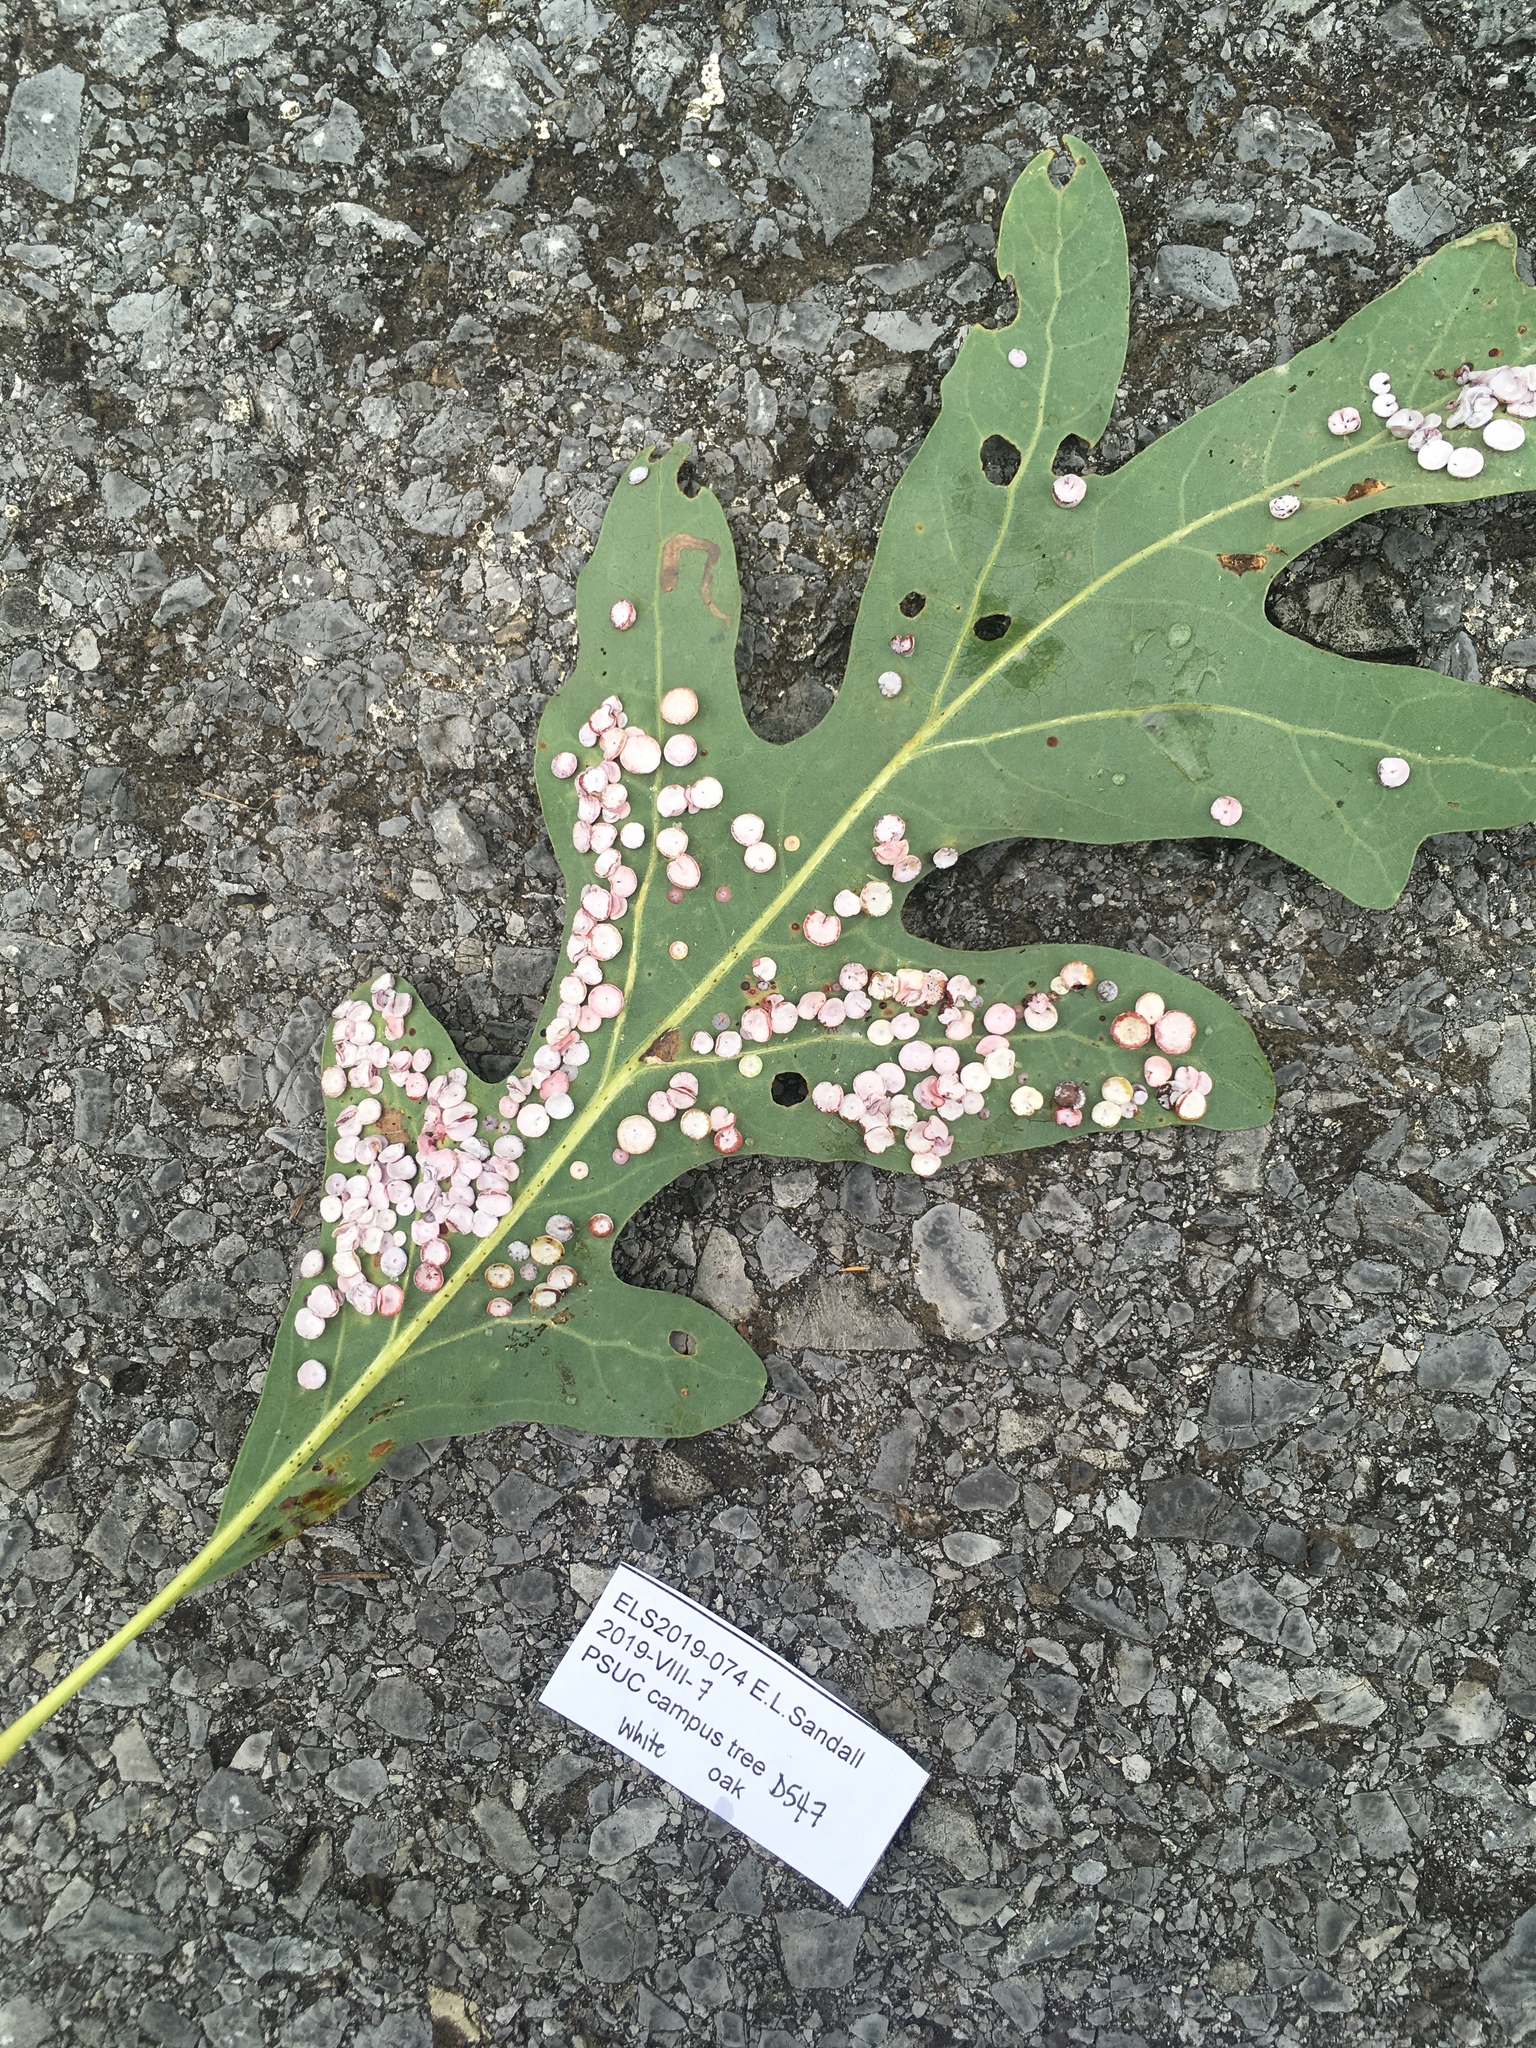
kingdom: Animalia
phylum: Arthropoda
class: Insecta
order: Hymenoptera
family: Cynipidae
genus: Phylloteras
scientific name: Phylloteras poculum
